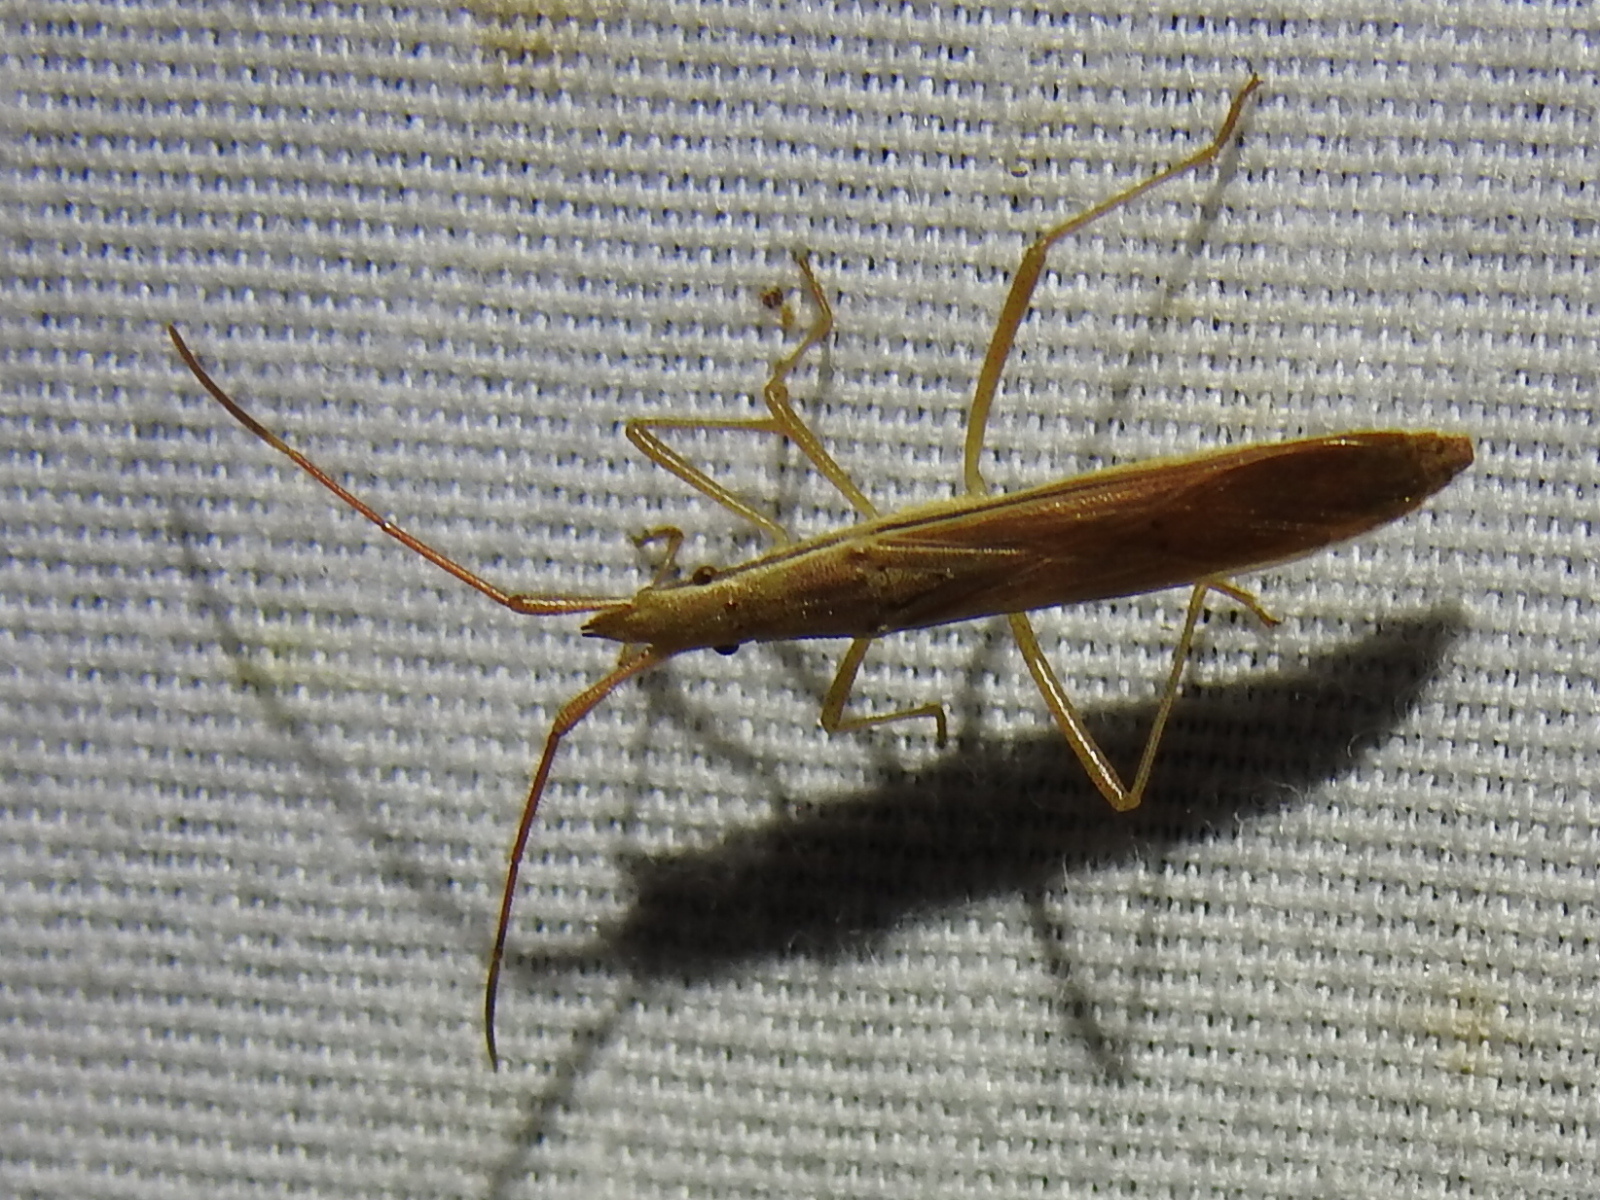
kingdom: Animalia
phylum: Arthropoda
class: Insecta
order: Hemiptera
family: Alydidae
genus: Protenor
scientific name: Protenor belfragei
